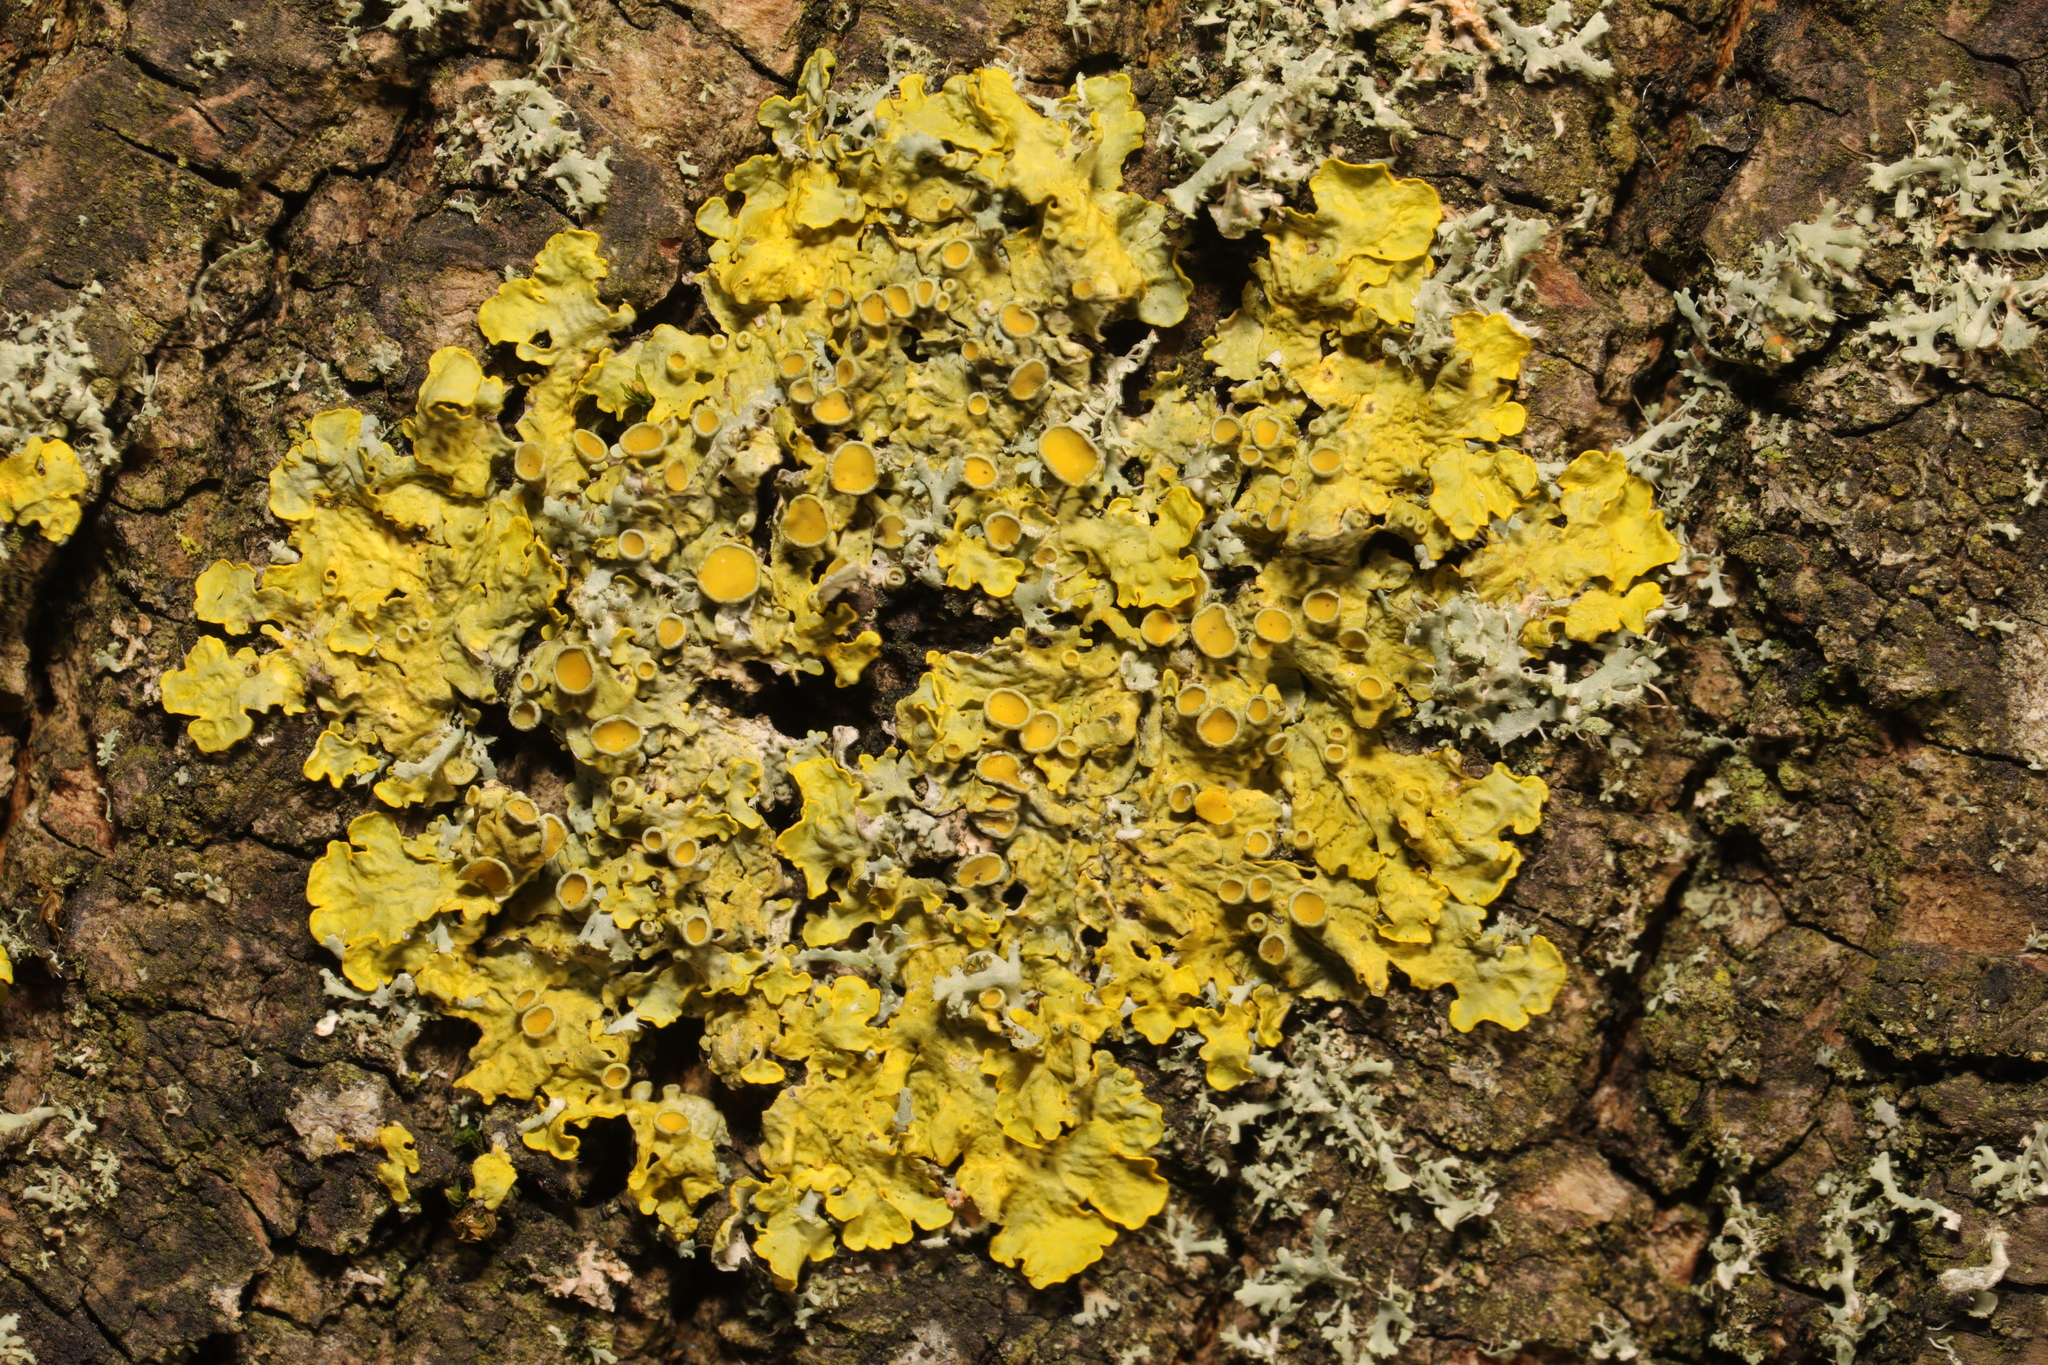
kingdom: Fungi
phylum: Ascomycota
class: Lecanoromycetes
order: Teloschistales
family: Teloschistaceae
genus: Xanthoria
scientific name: Xanthoria parietina
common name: Common orange lichen
